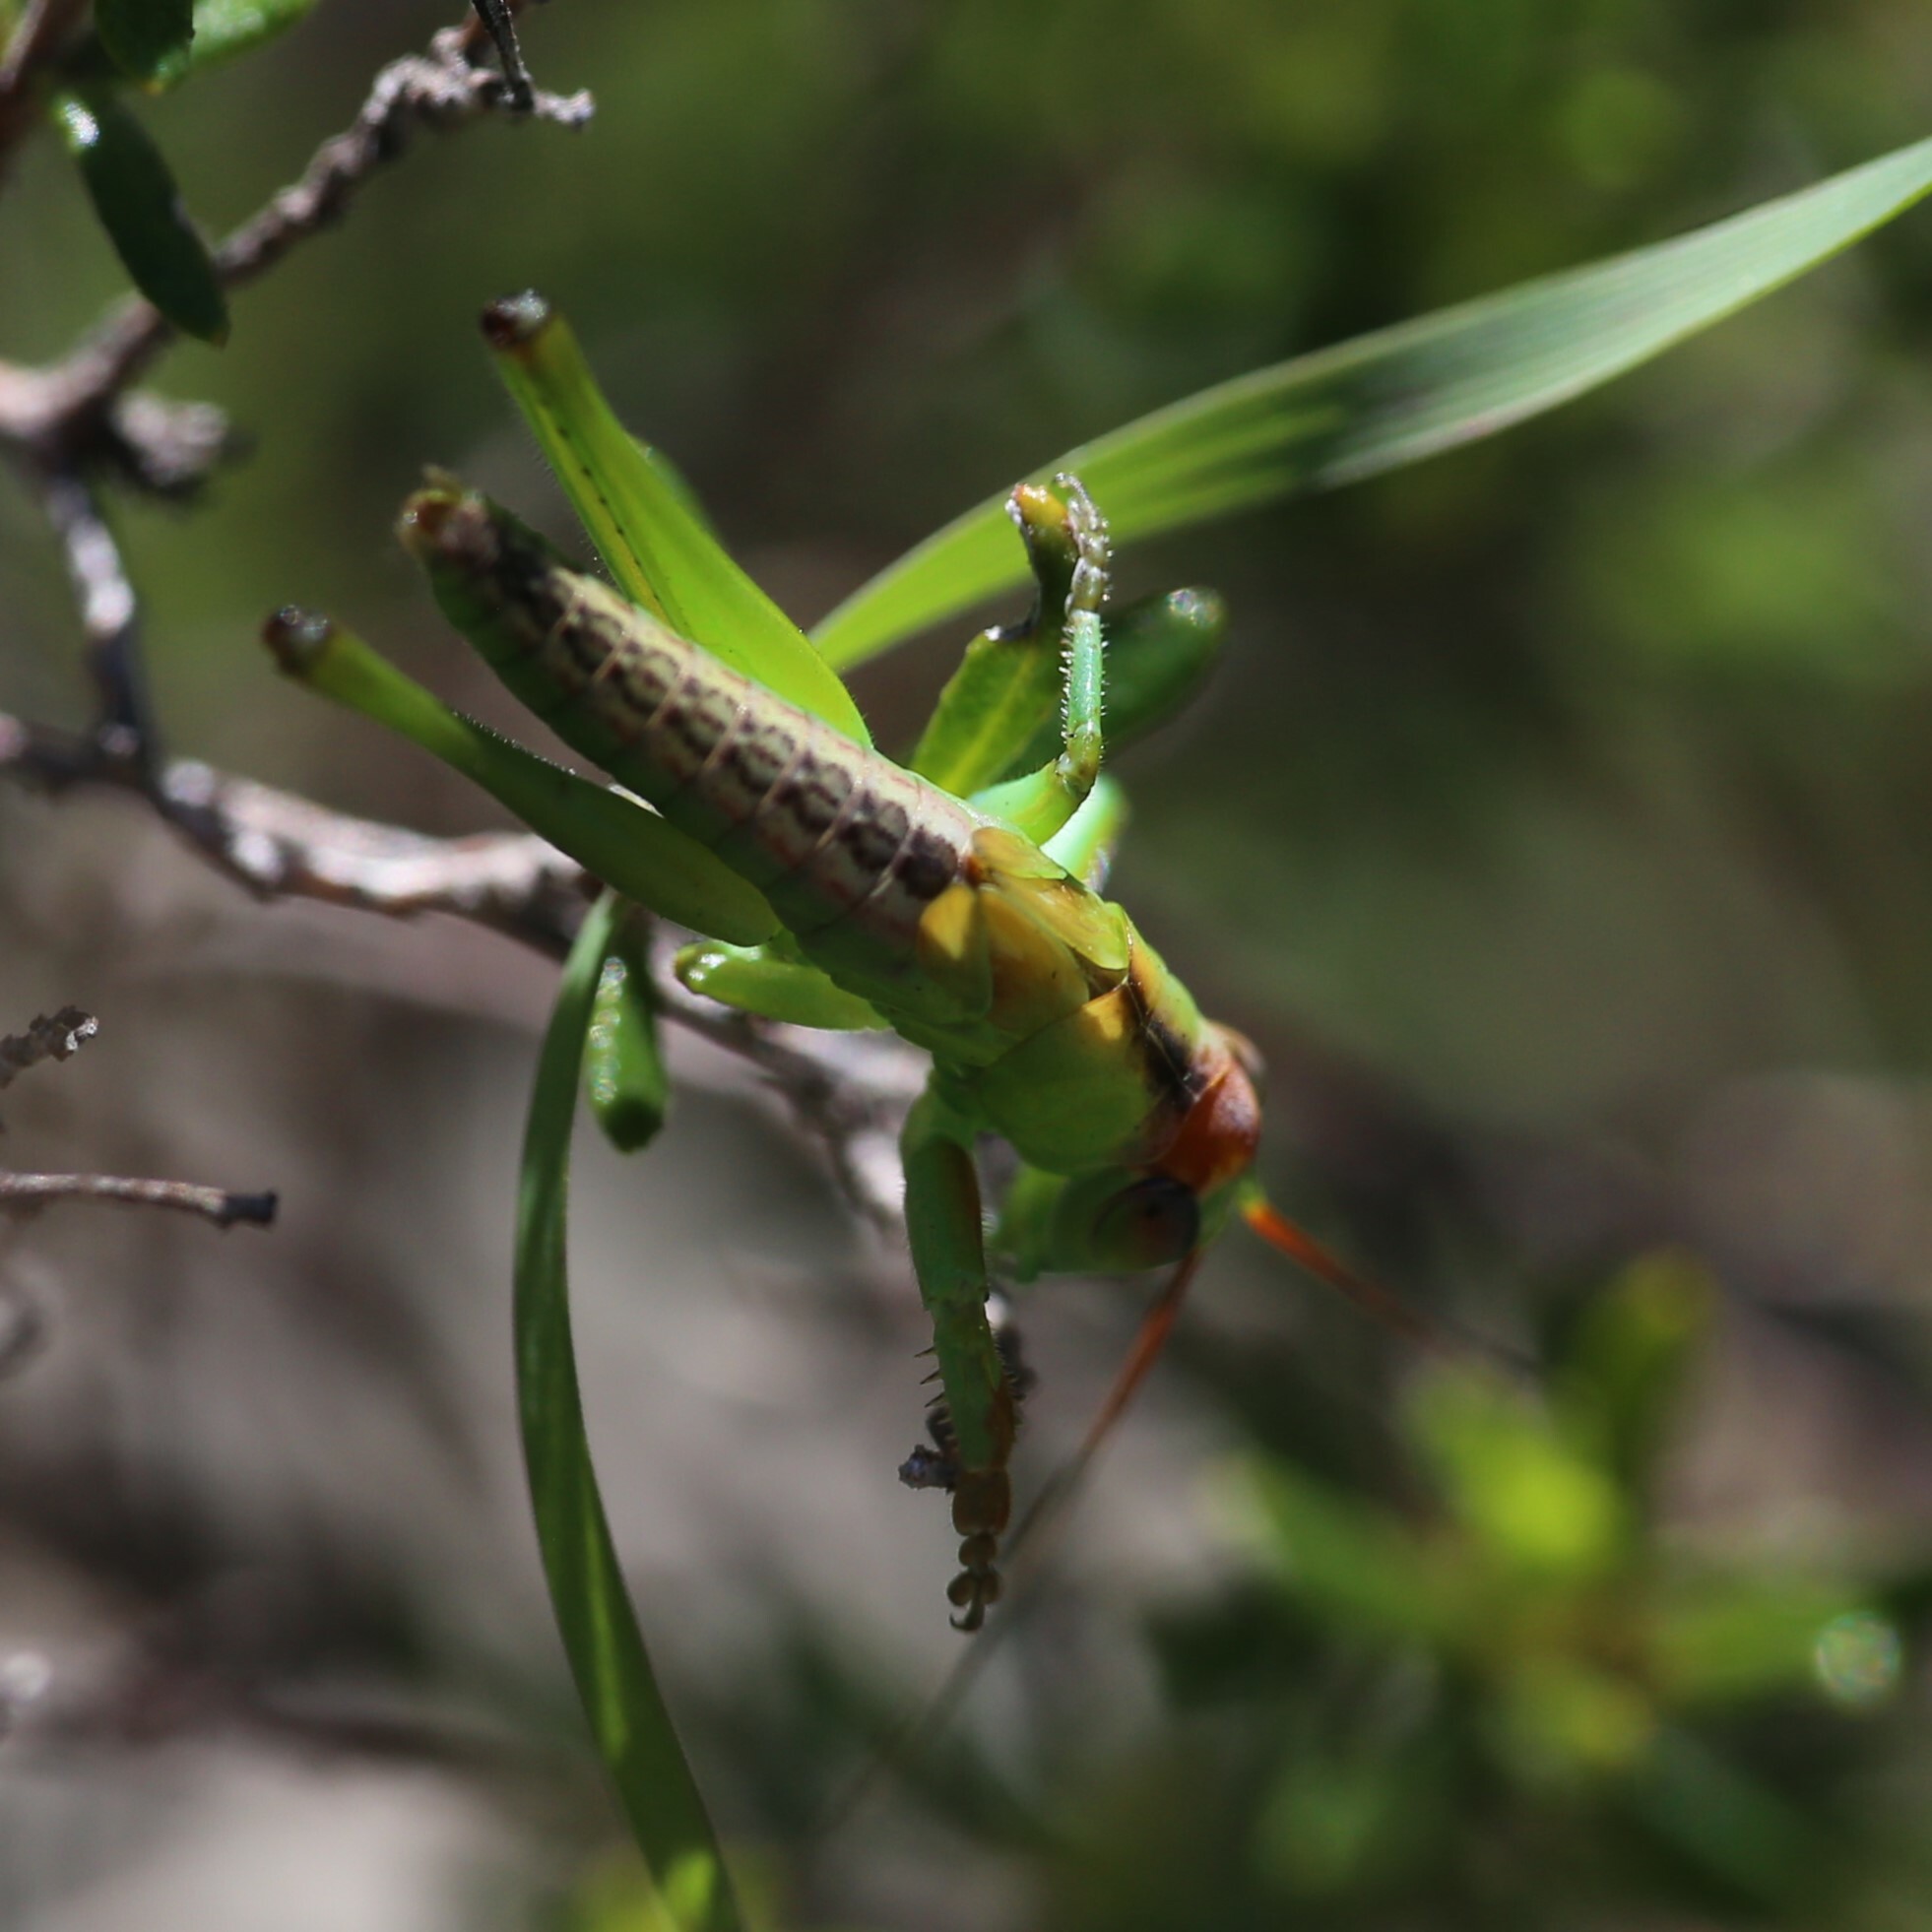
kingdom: Animalia
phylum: Arthropoda
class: Insecta
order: Orthoptera
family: Tettigoniidae
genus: Tympanophora
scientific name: Tympanophora andreae
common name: Andrea's balloon-winged katydid
